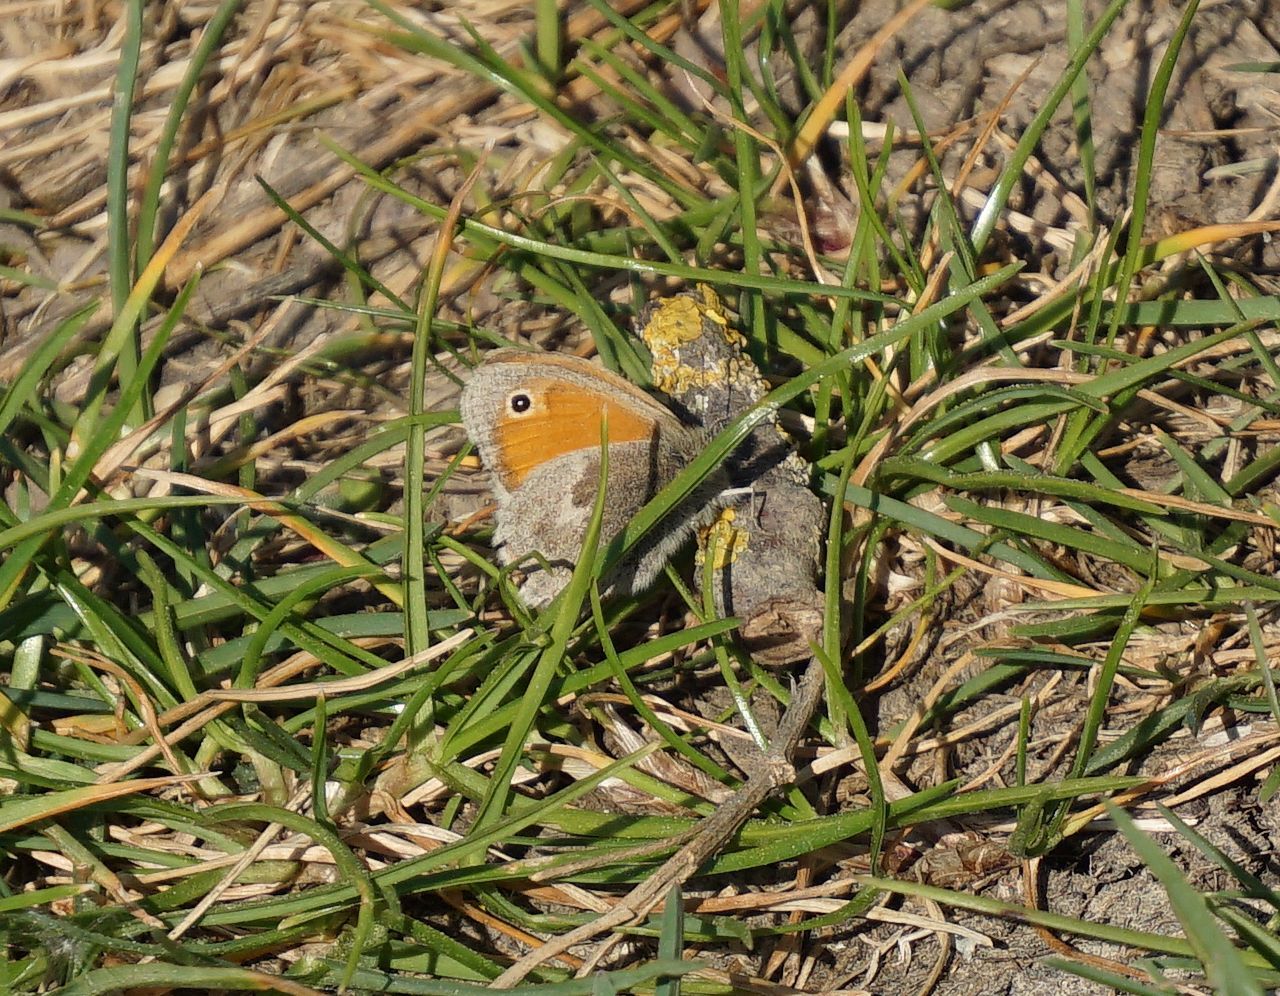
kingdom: Animalia
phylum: Arthropoda
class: Insecta
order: Lepidoptera
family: Nymphalidae
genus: Coenonympha
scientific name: Coenonympha pamphilus
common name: Small heath
